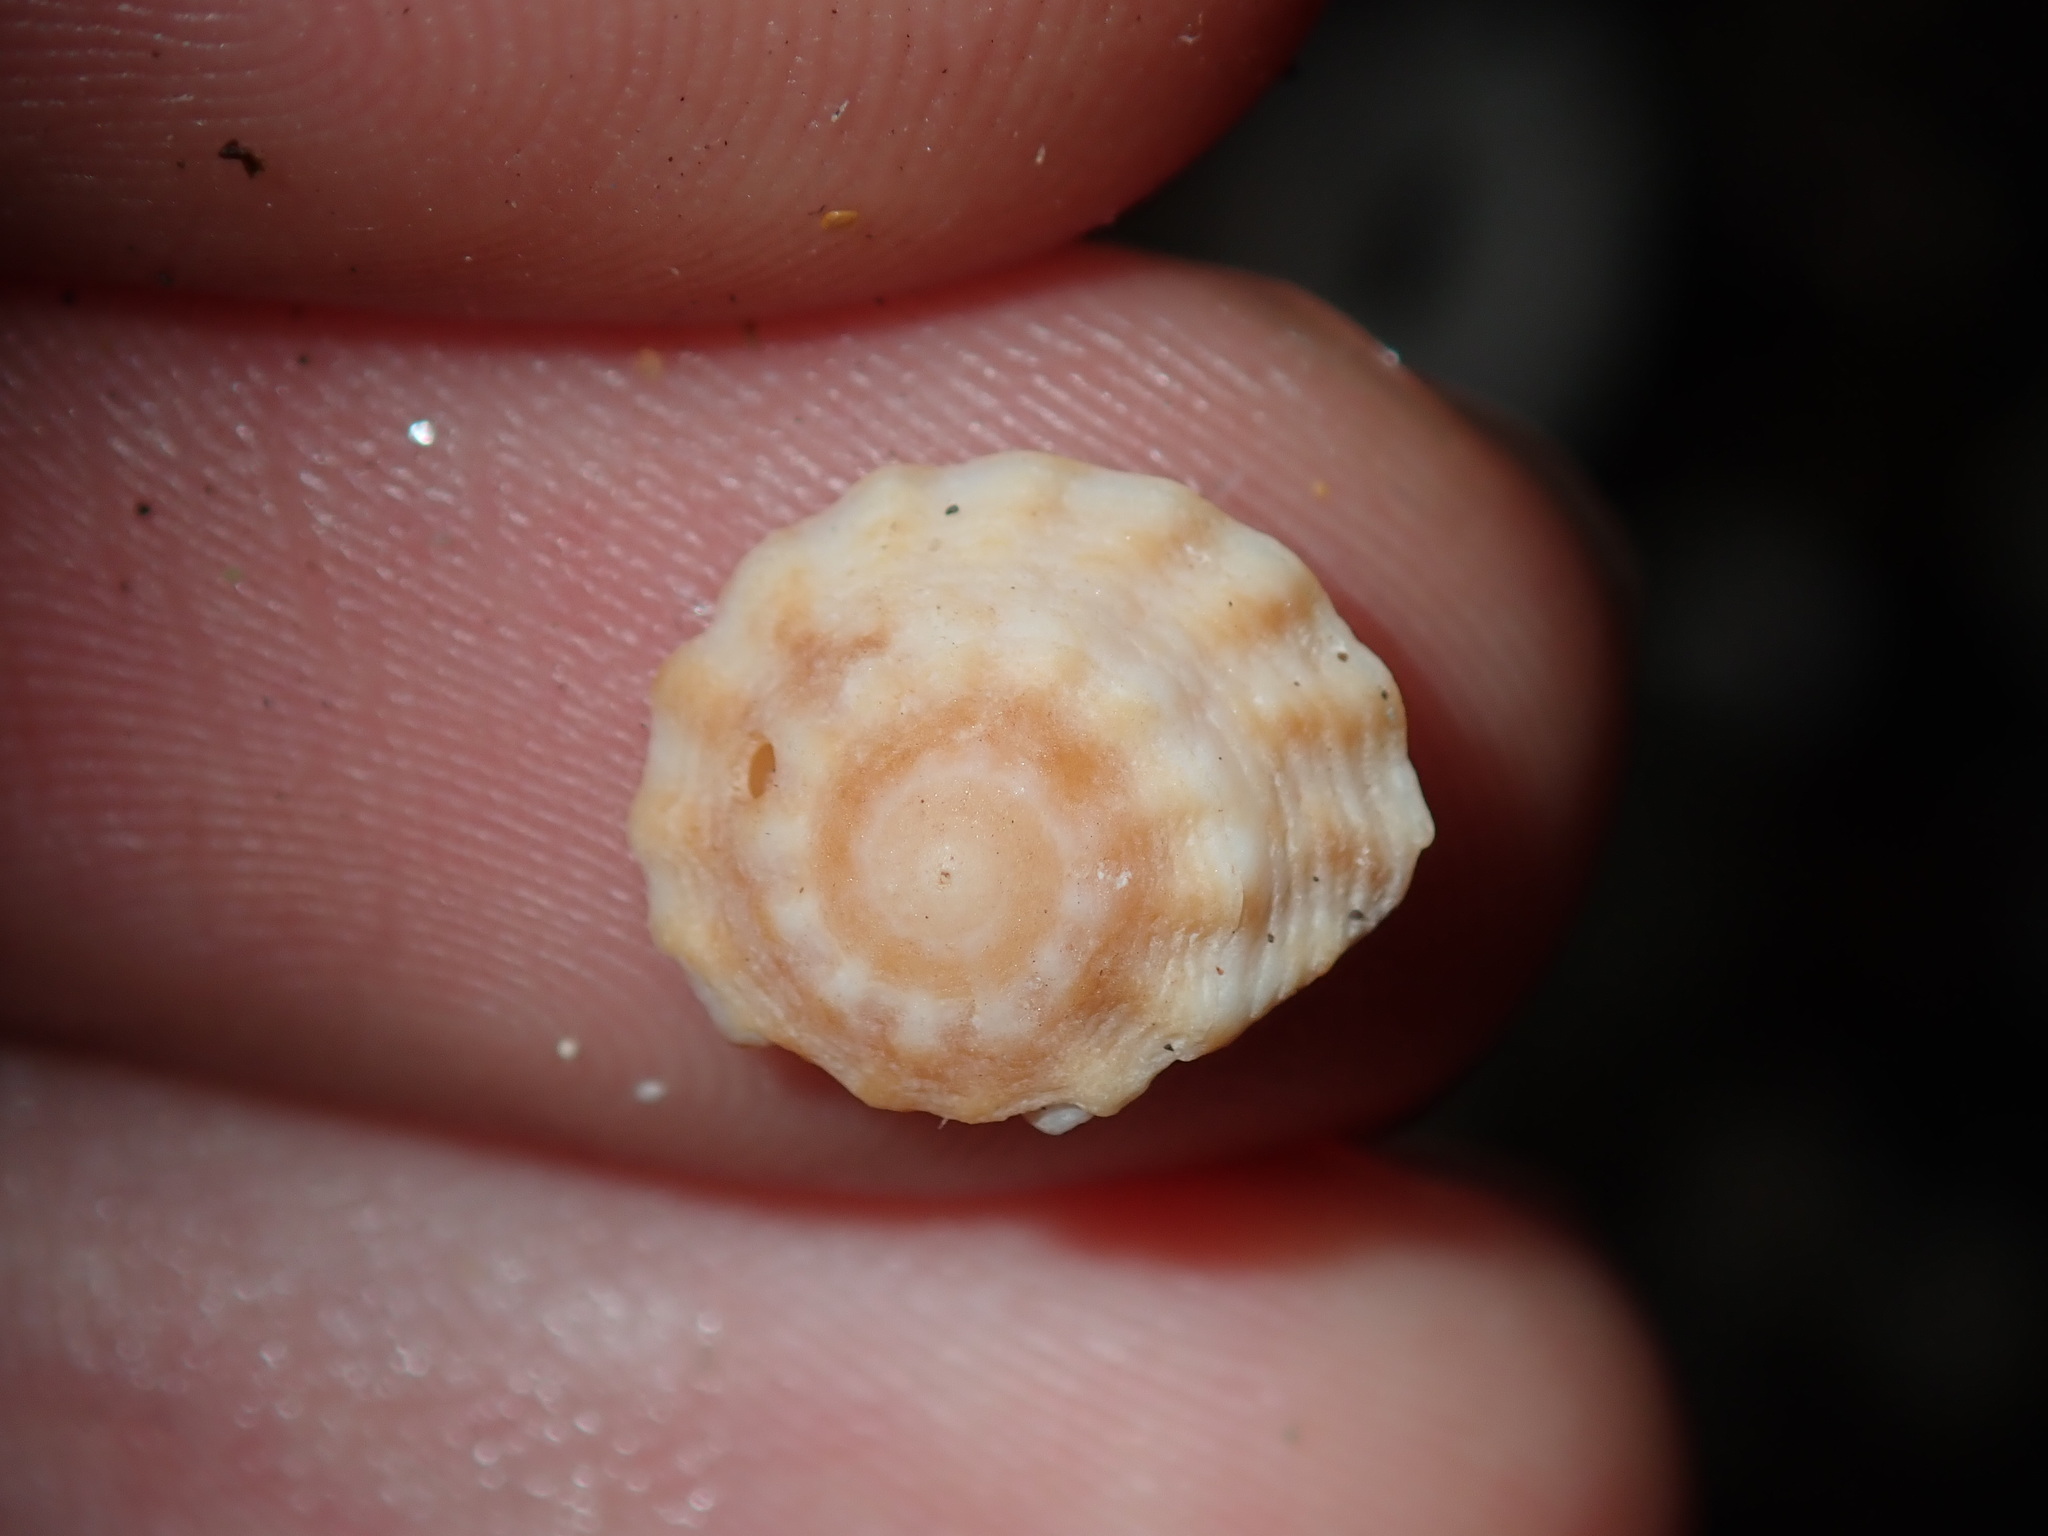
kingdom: Animalia
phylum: Mollusca
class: Gastropoda
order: Littorinimorpha
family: Littorinidae
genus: Bembicium
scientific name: Bembicium nanum
